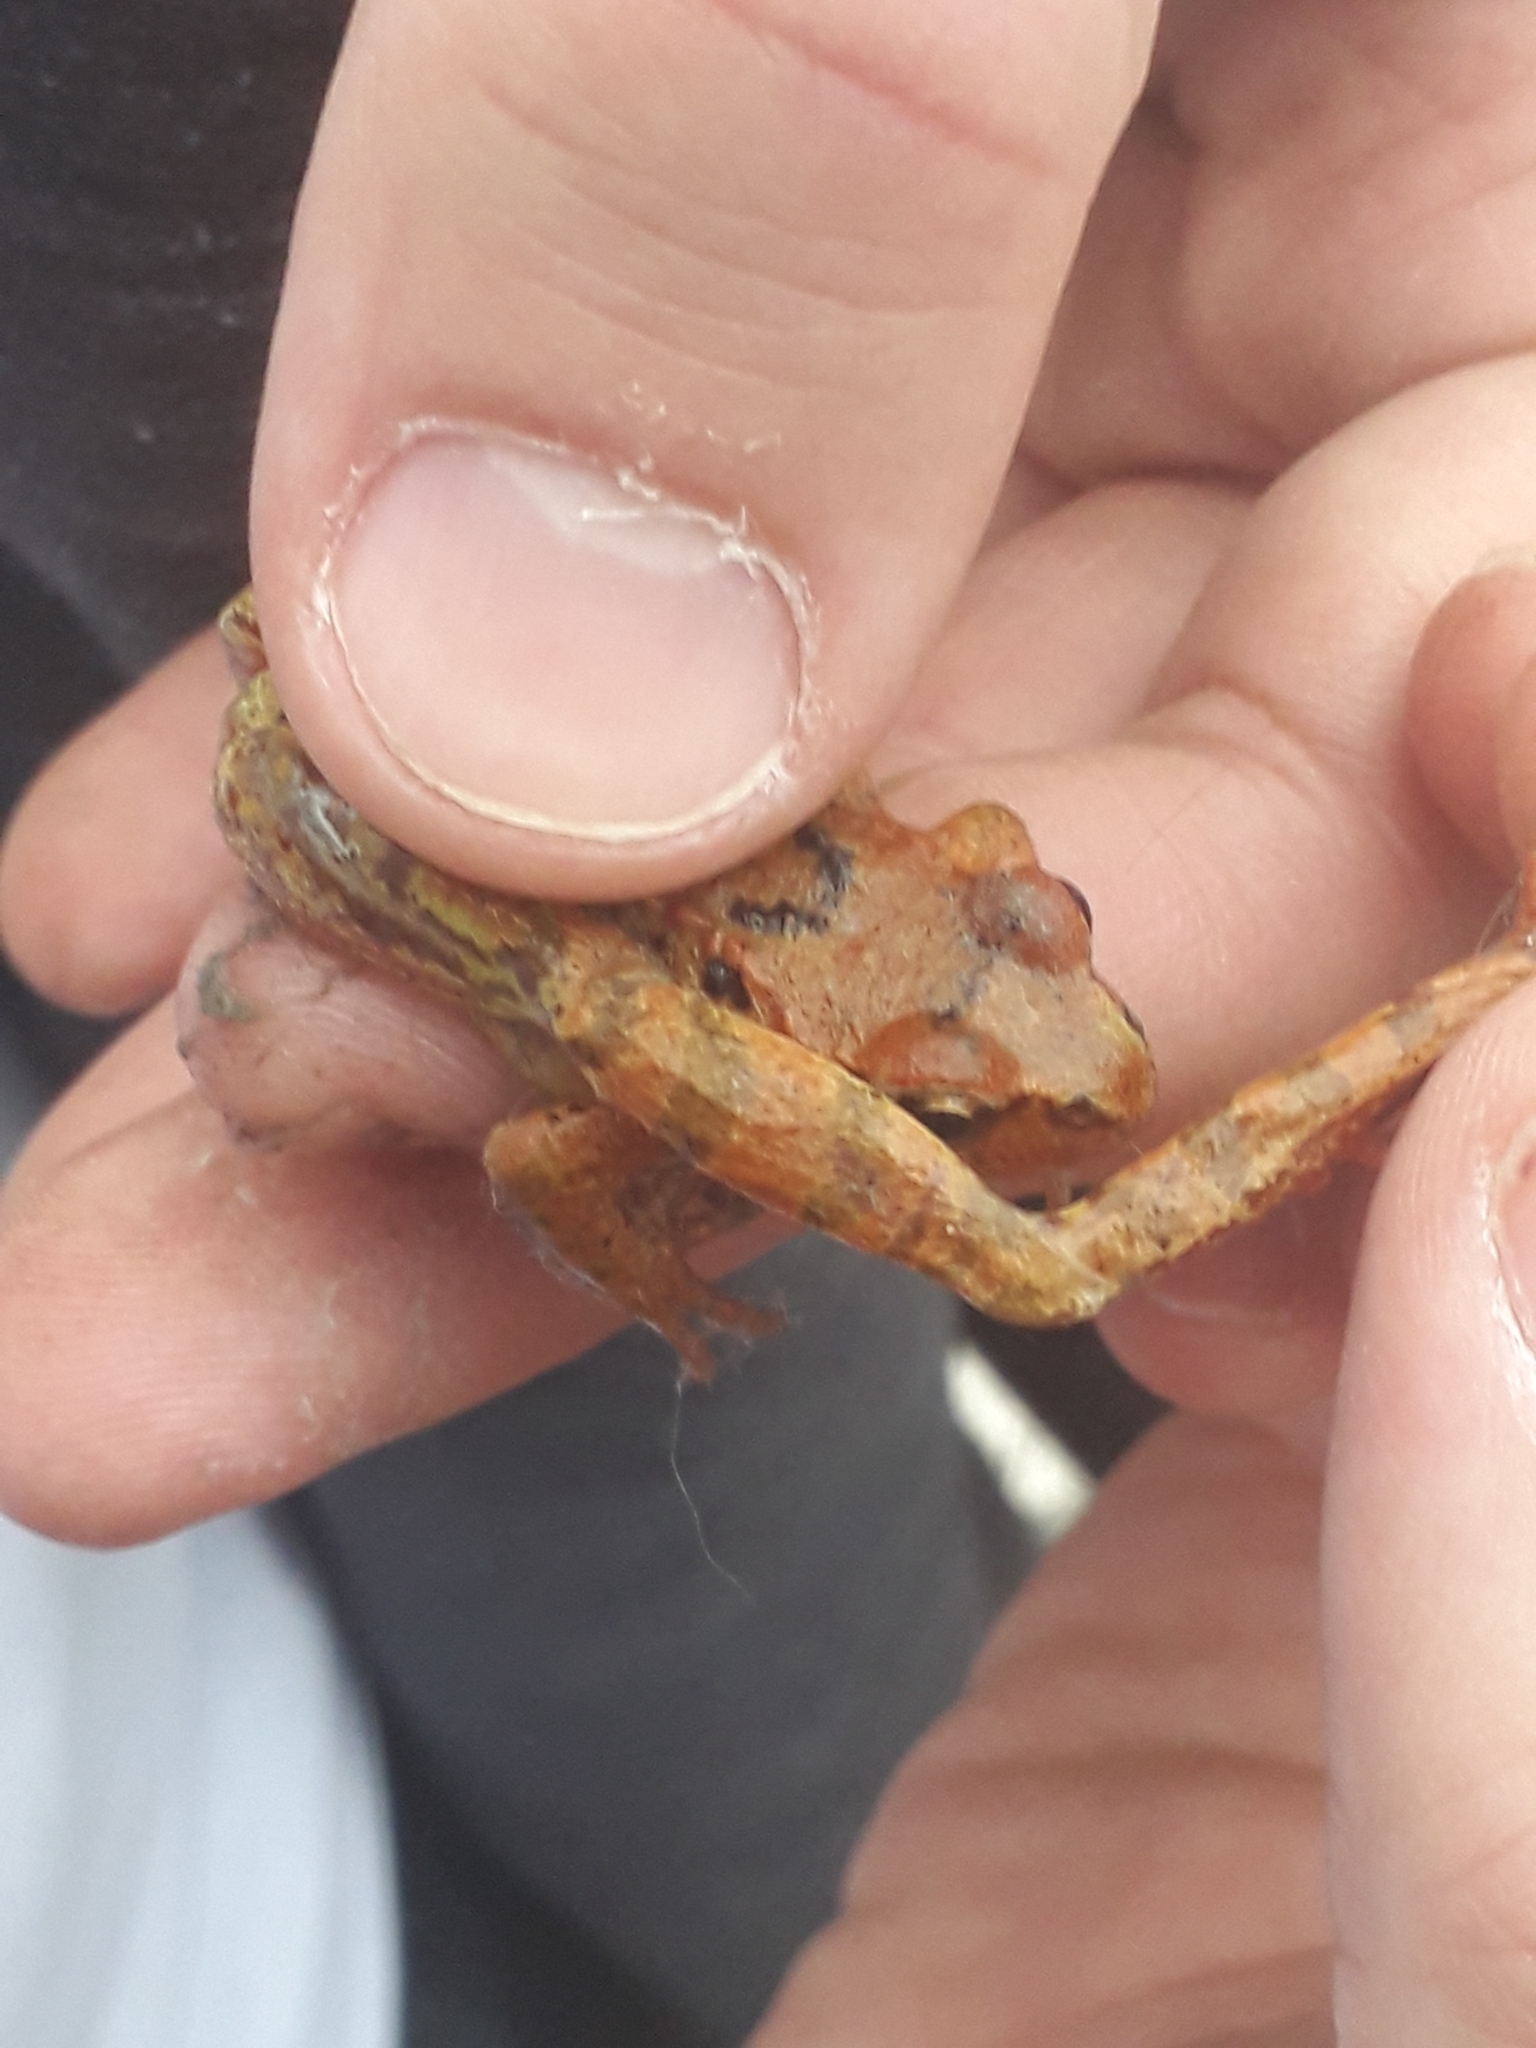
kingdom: Animalia
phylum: Chordata
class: Amphibia
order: Anura
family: Ranidae
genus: Rana
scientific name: Rana temporaria
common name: Common frog
